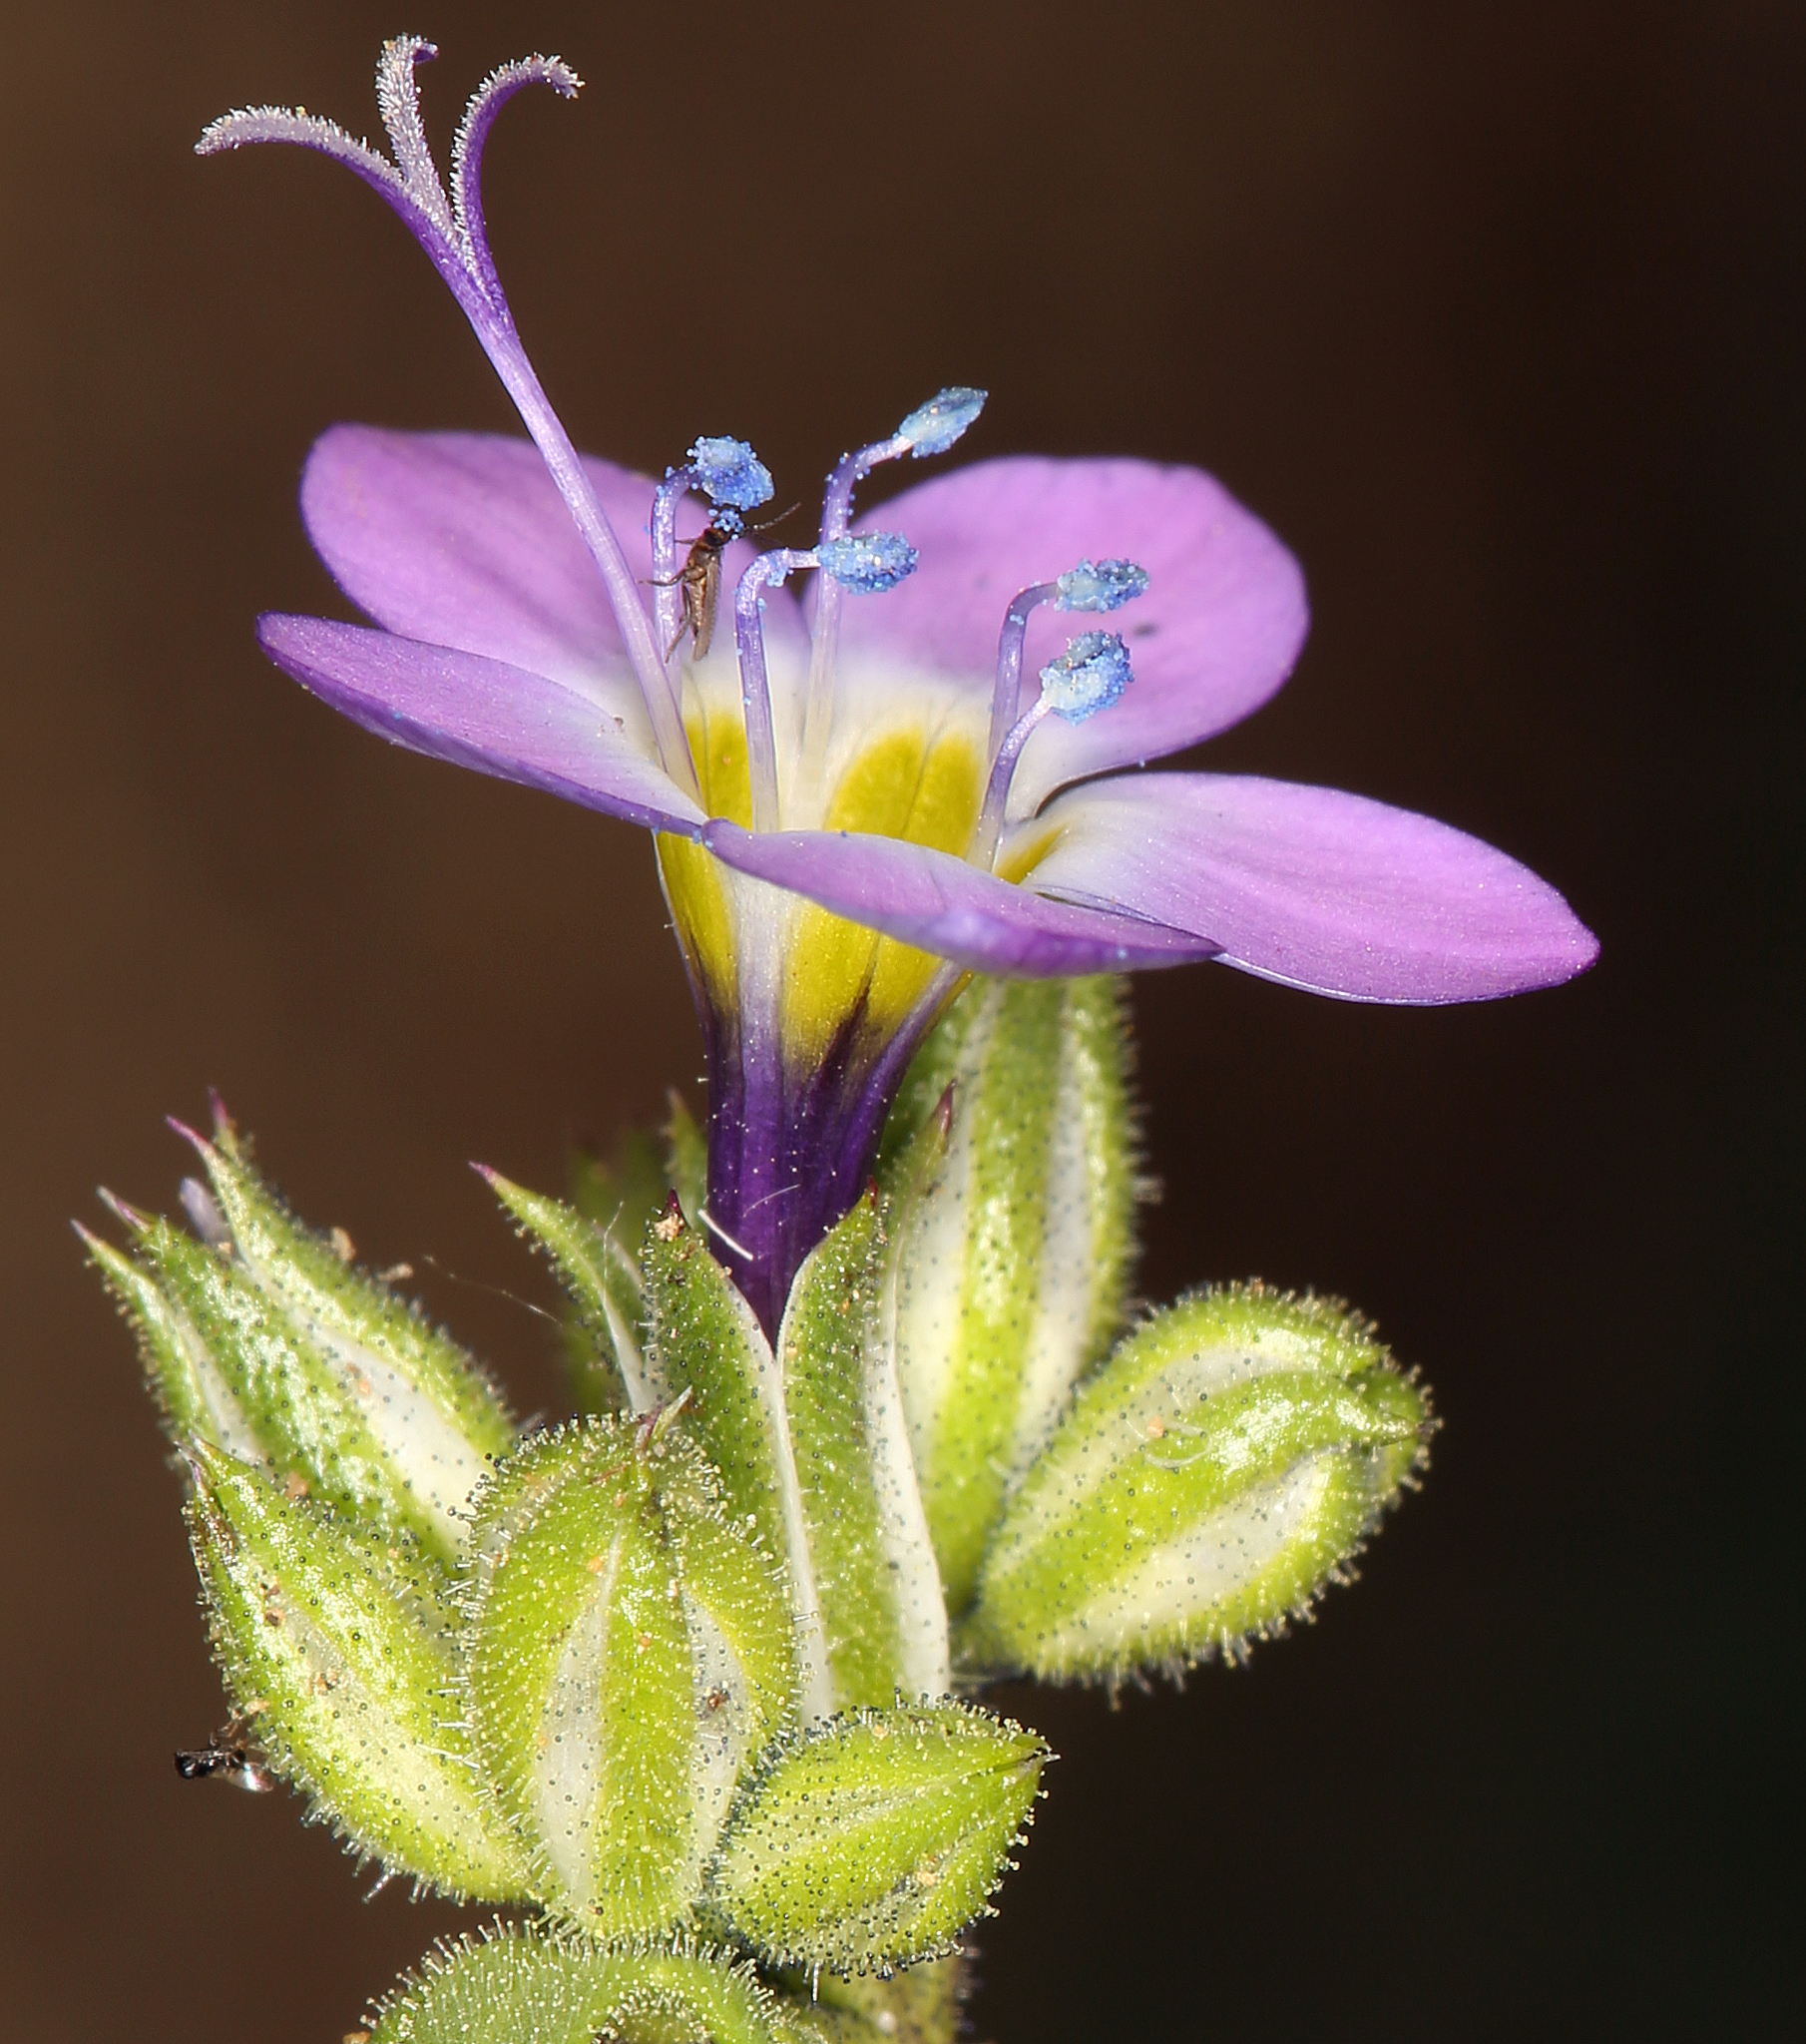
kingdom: Plantae
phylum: Tracheophyta
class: Magnoliopsida
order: Ericales
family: Polemoniaceae
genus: Gilia
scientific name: Gilia brecciarum
